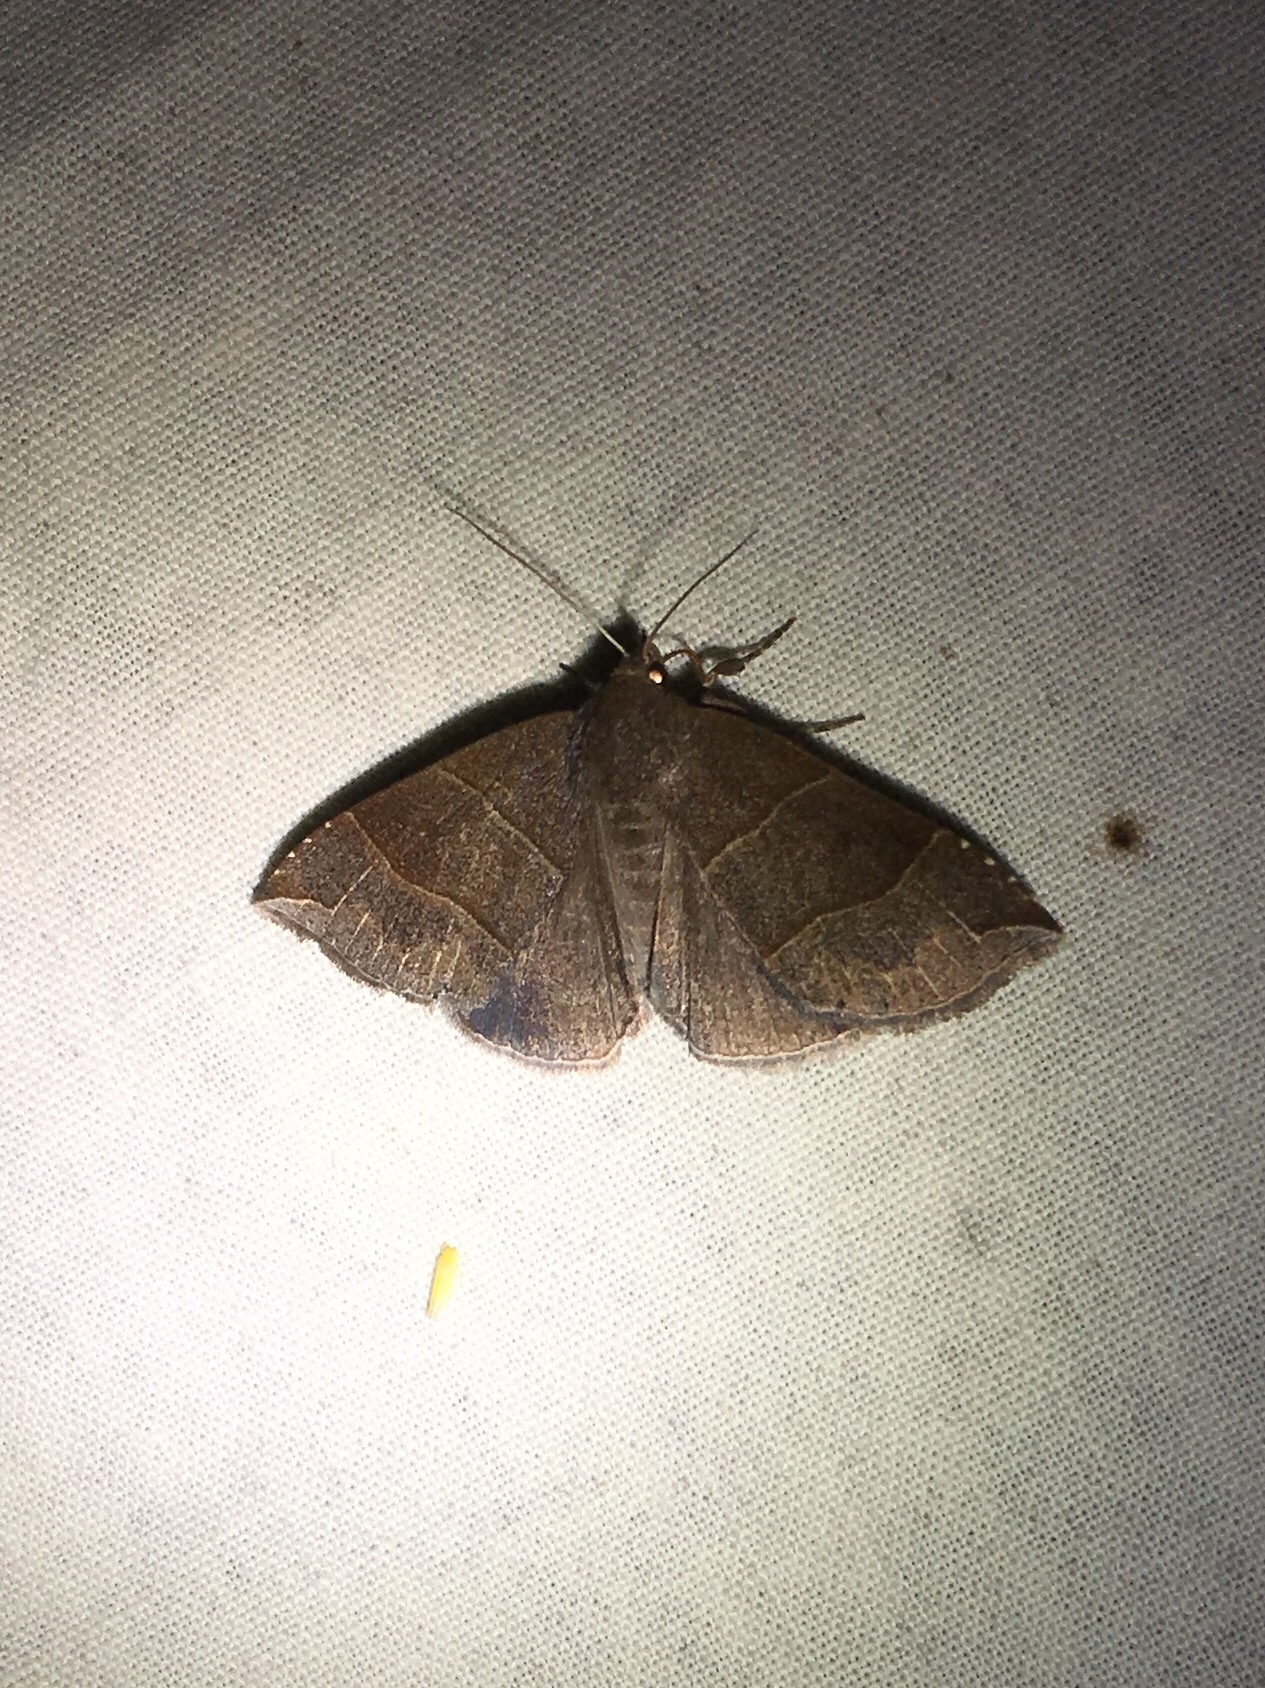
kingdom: Animalia
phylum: Arthropoda
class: Insecta
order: Lepidoptera
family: Erebidae
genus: Parallelia
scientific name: Parallelia bistriaris
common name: Maple looper moth
